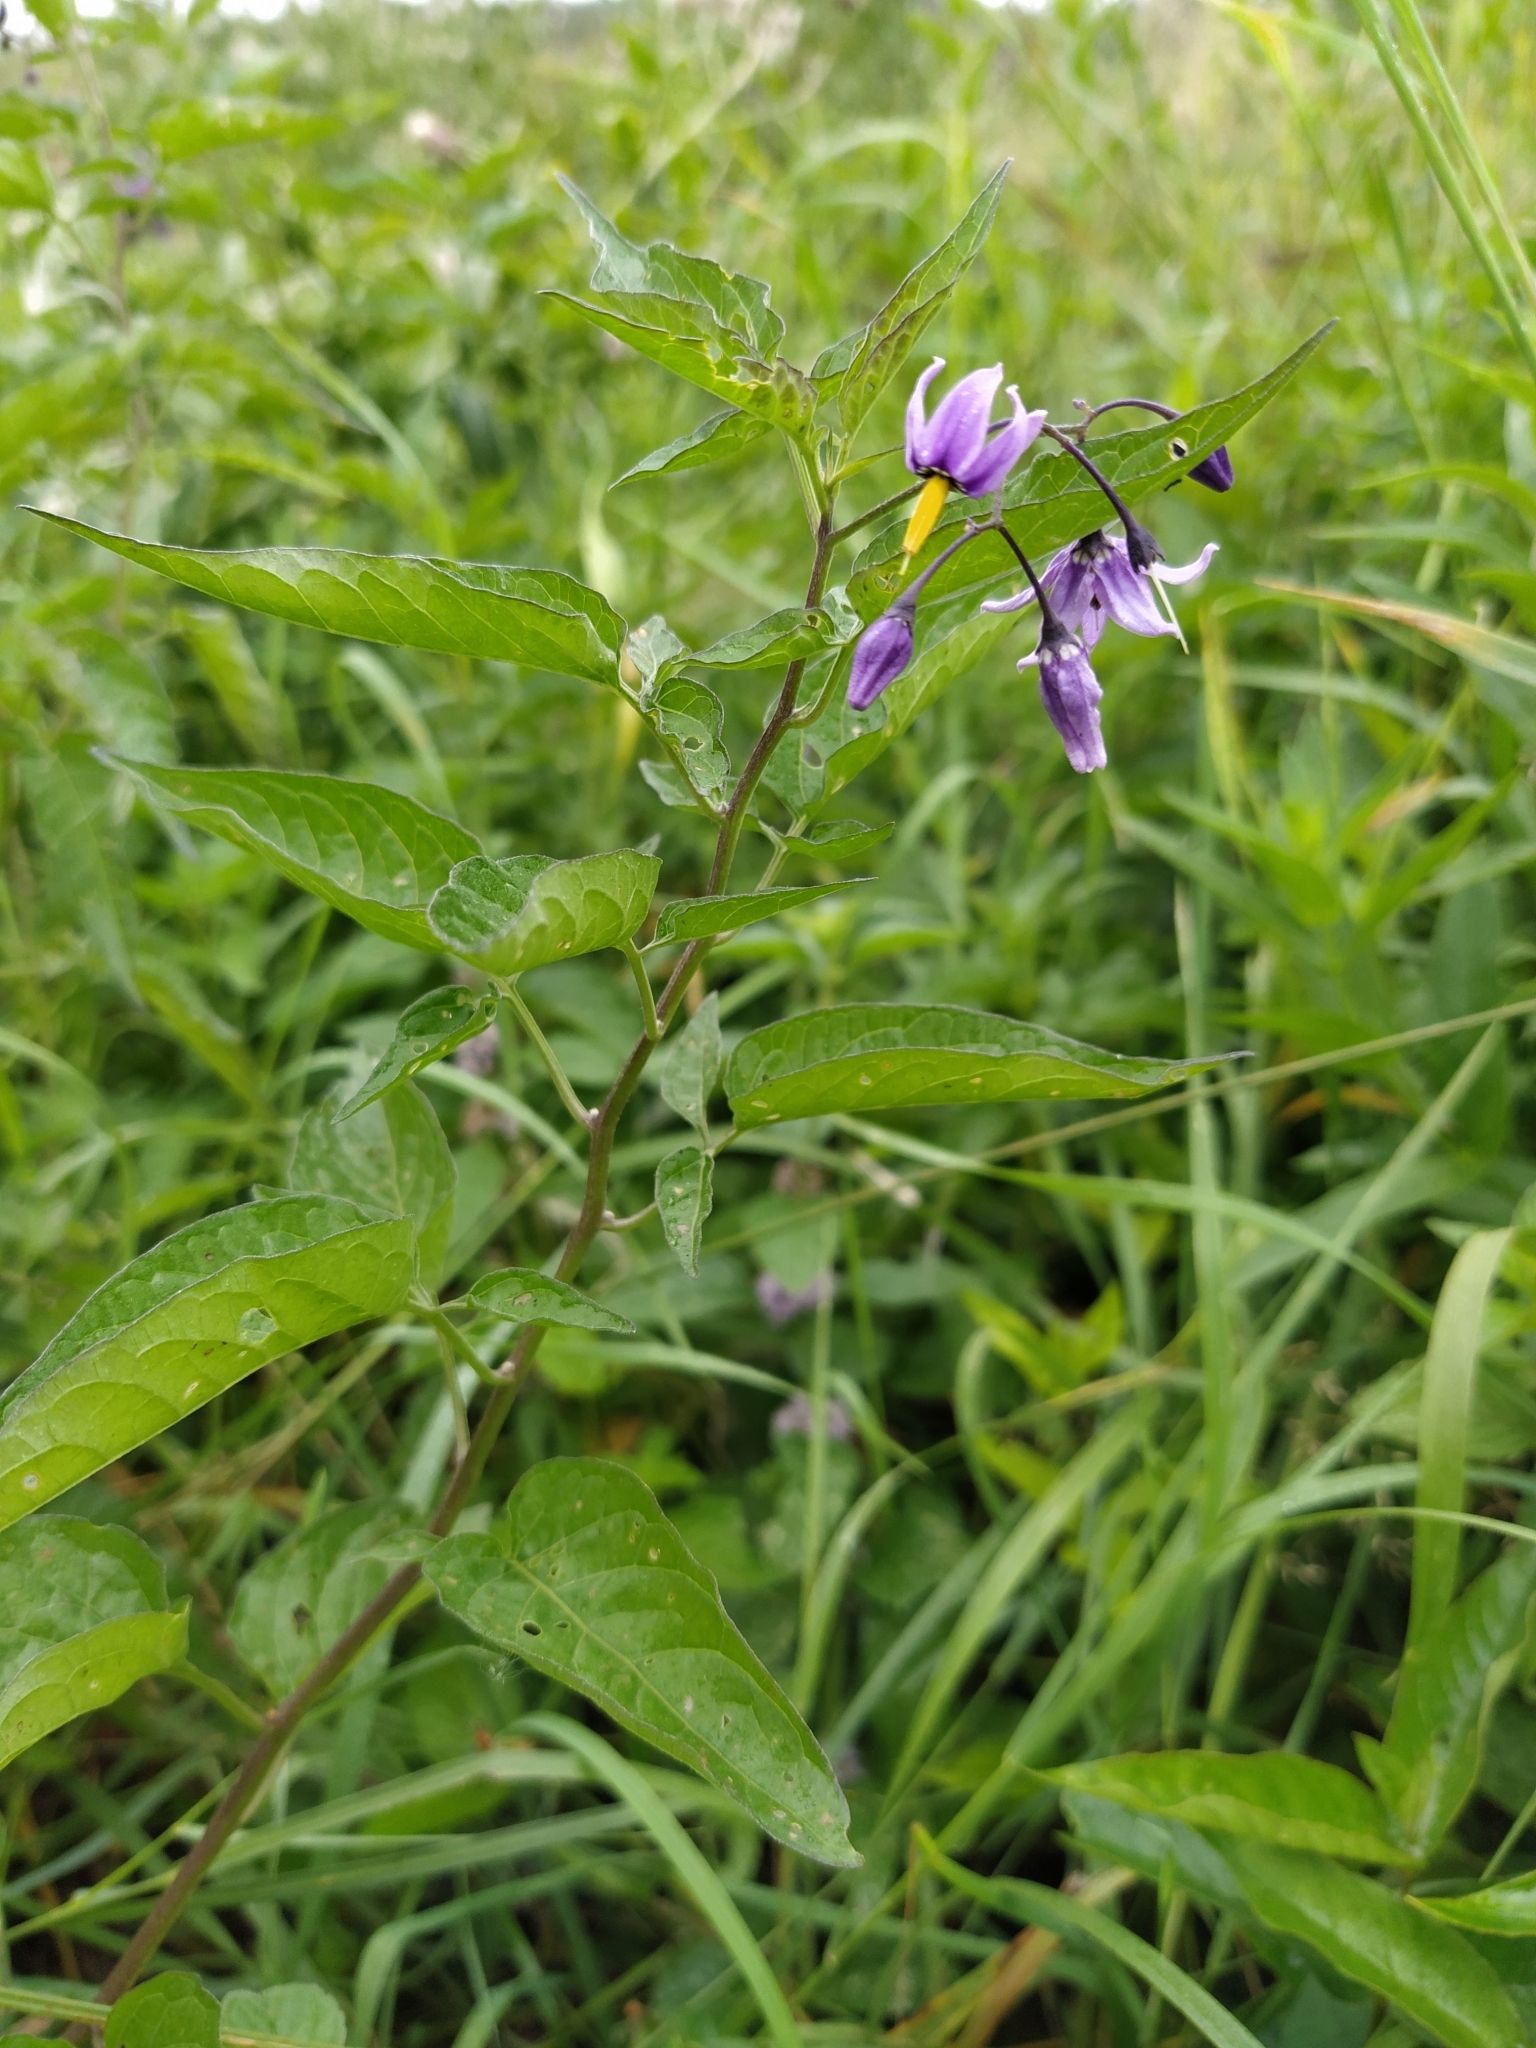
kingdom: Plantae
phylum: Tracheophyta
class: Magnoliopsida
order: Solanales
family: Solanaceae
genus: Solanum
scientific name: Solanum dulcamara
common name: Climbing nightshade
